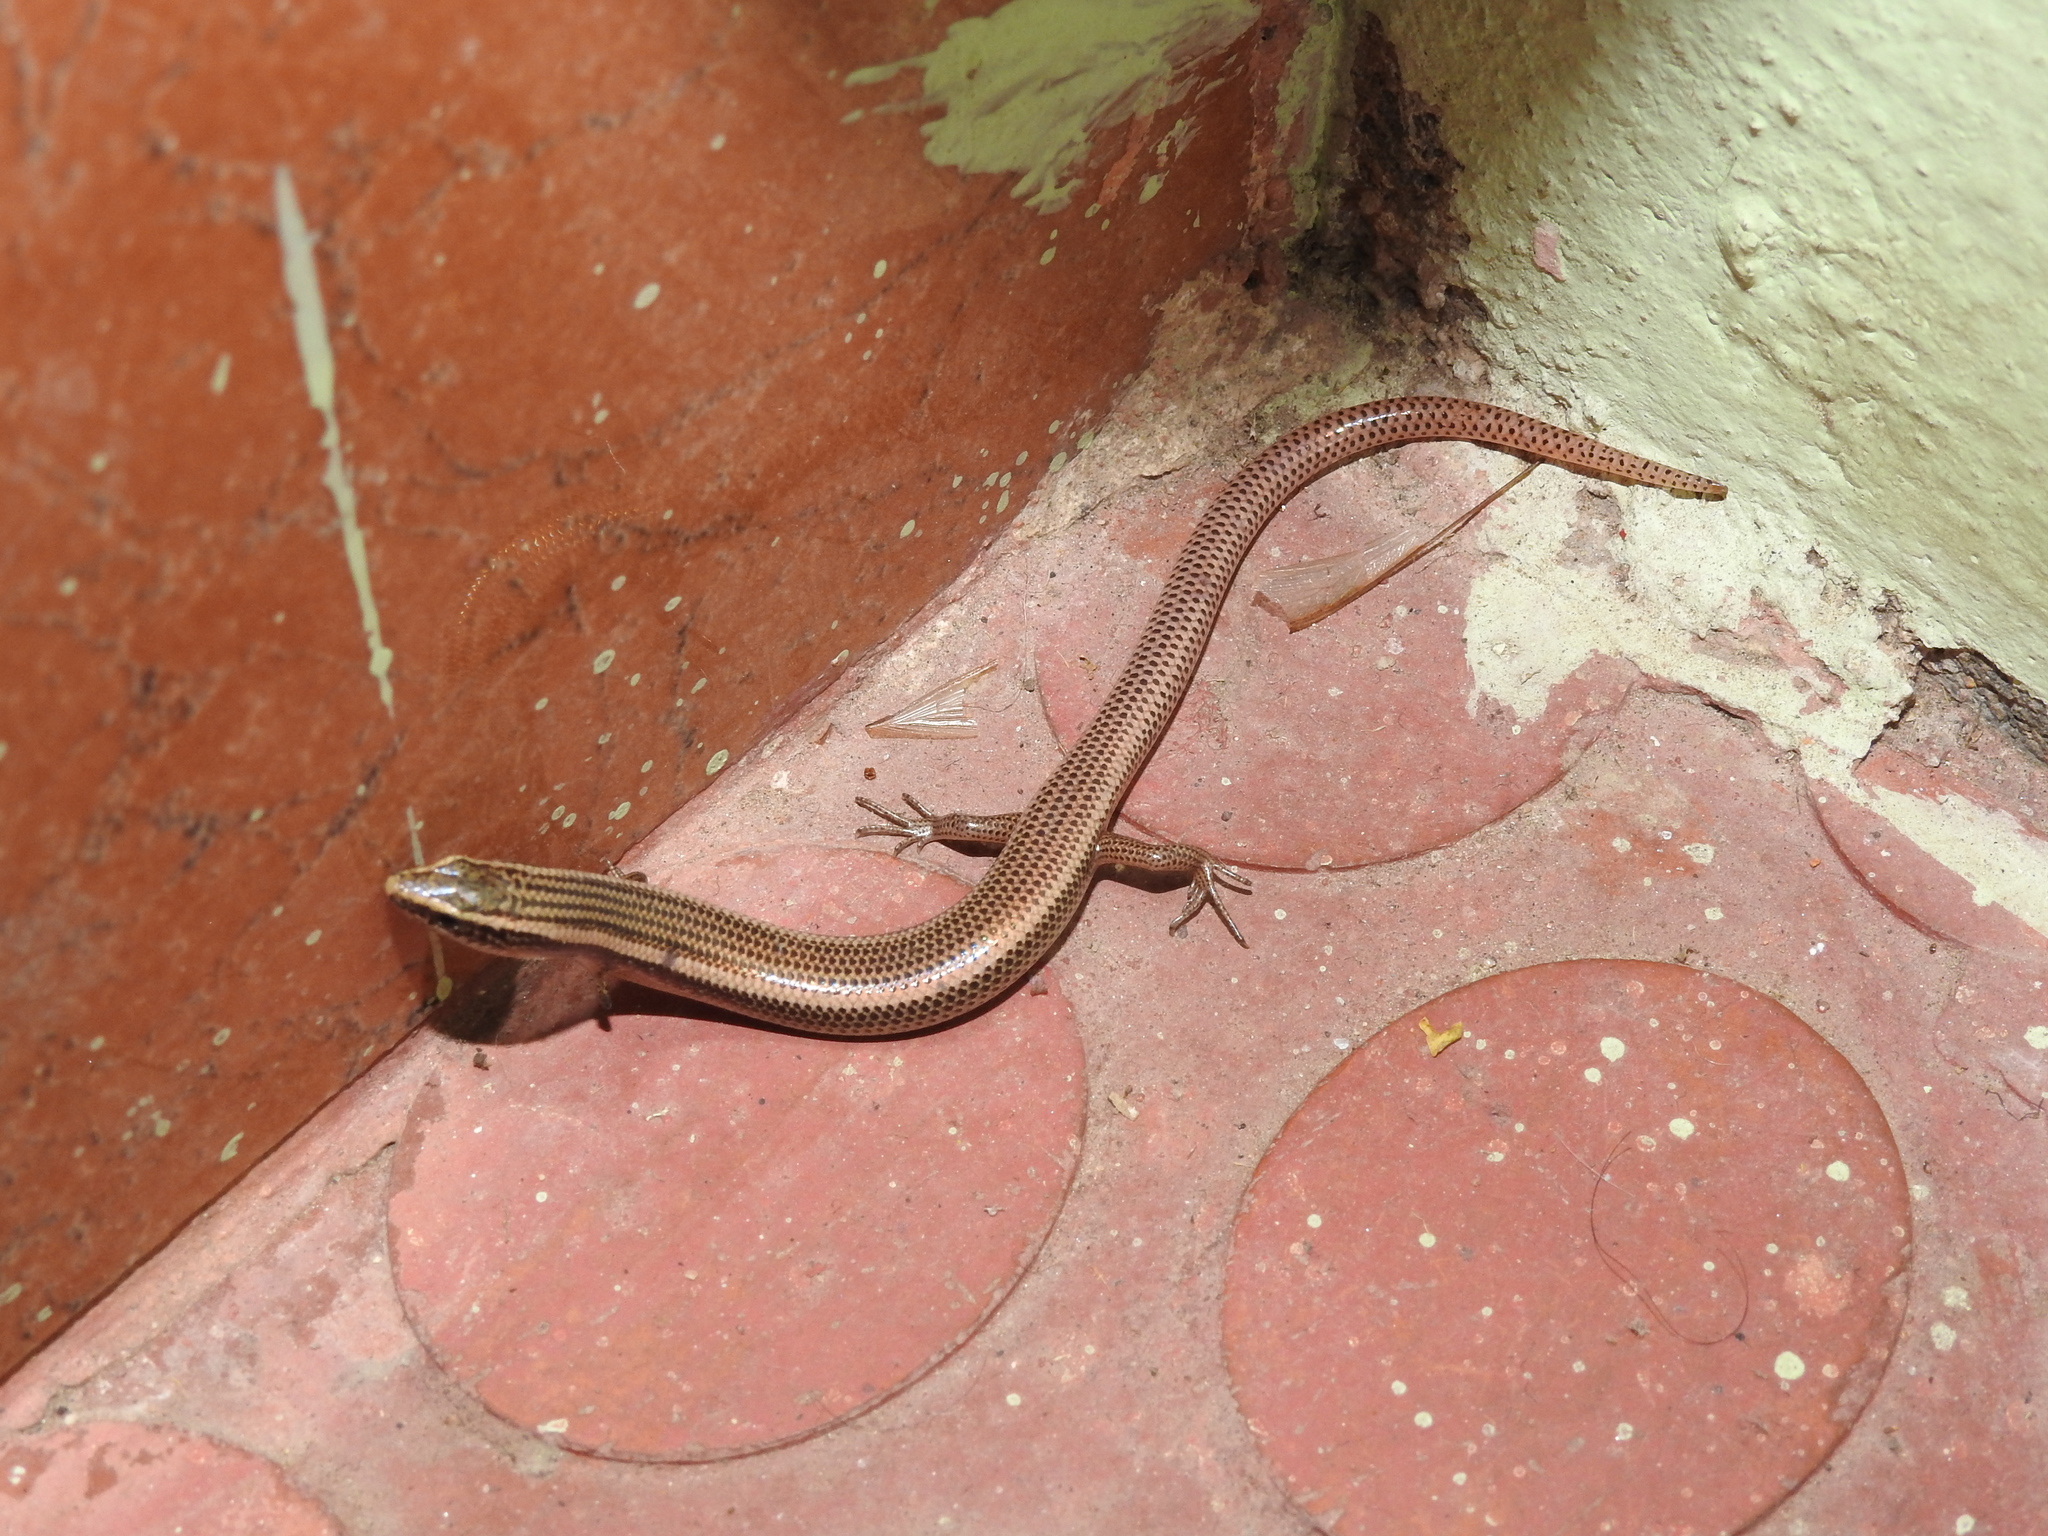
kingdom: Animalia
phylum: Chordata
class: Squamata
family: Scincidae
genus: Riopa
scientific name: Riopa punctata
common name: Common dotted garden skink
